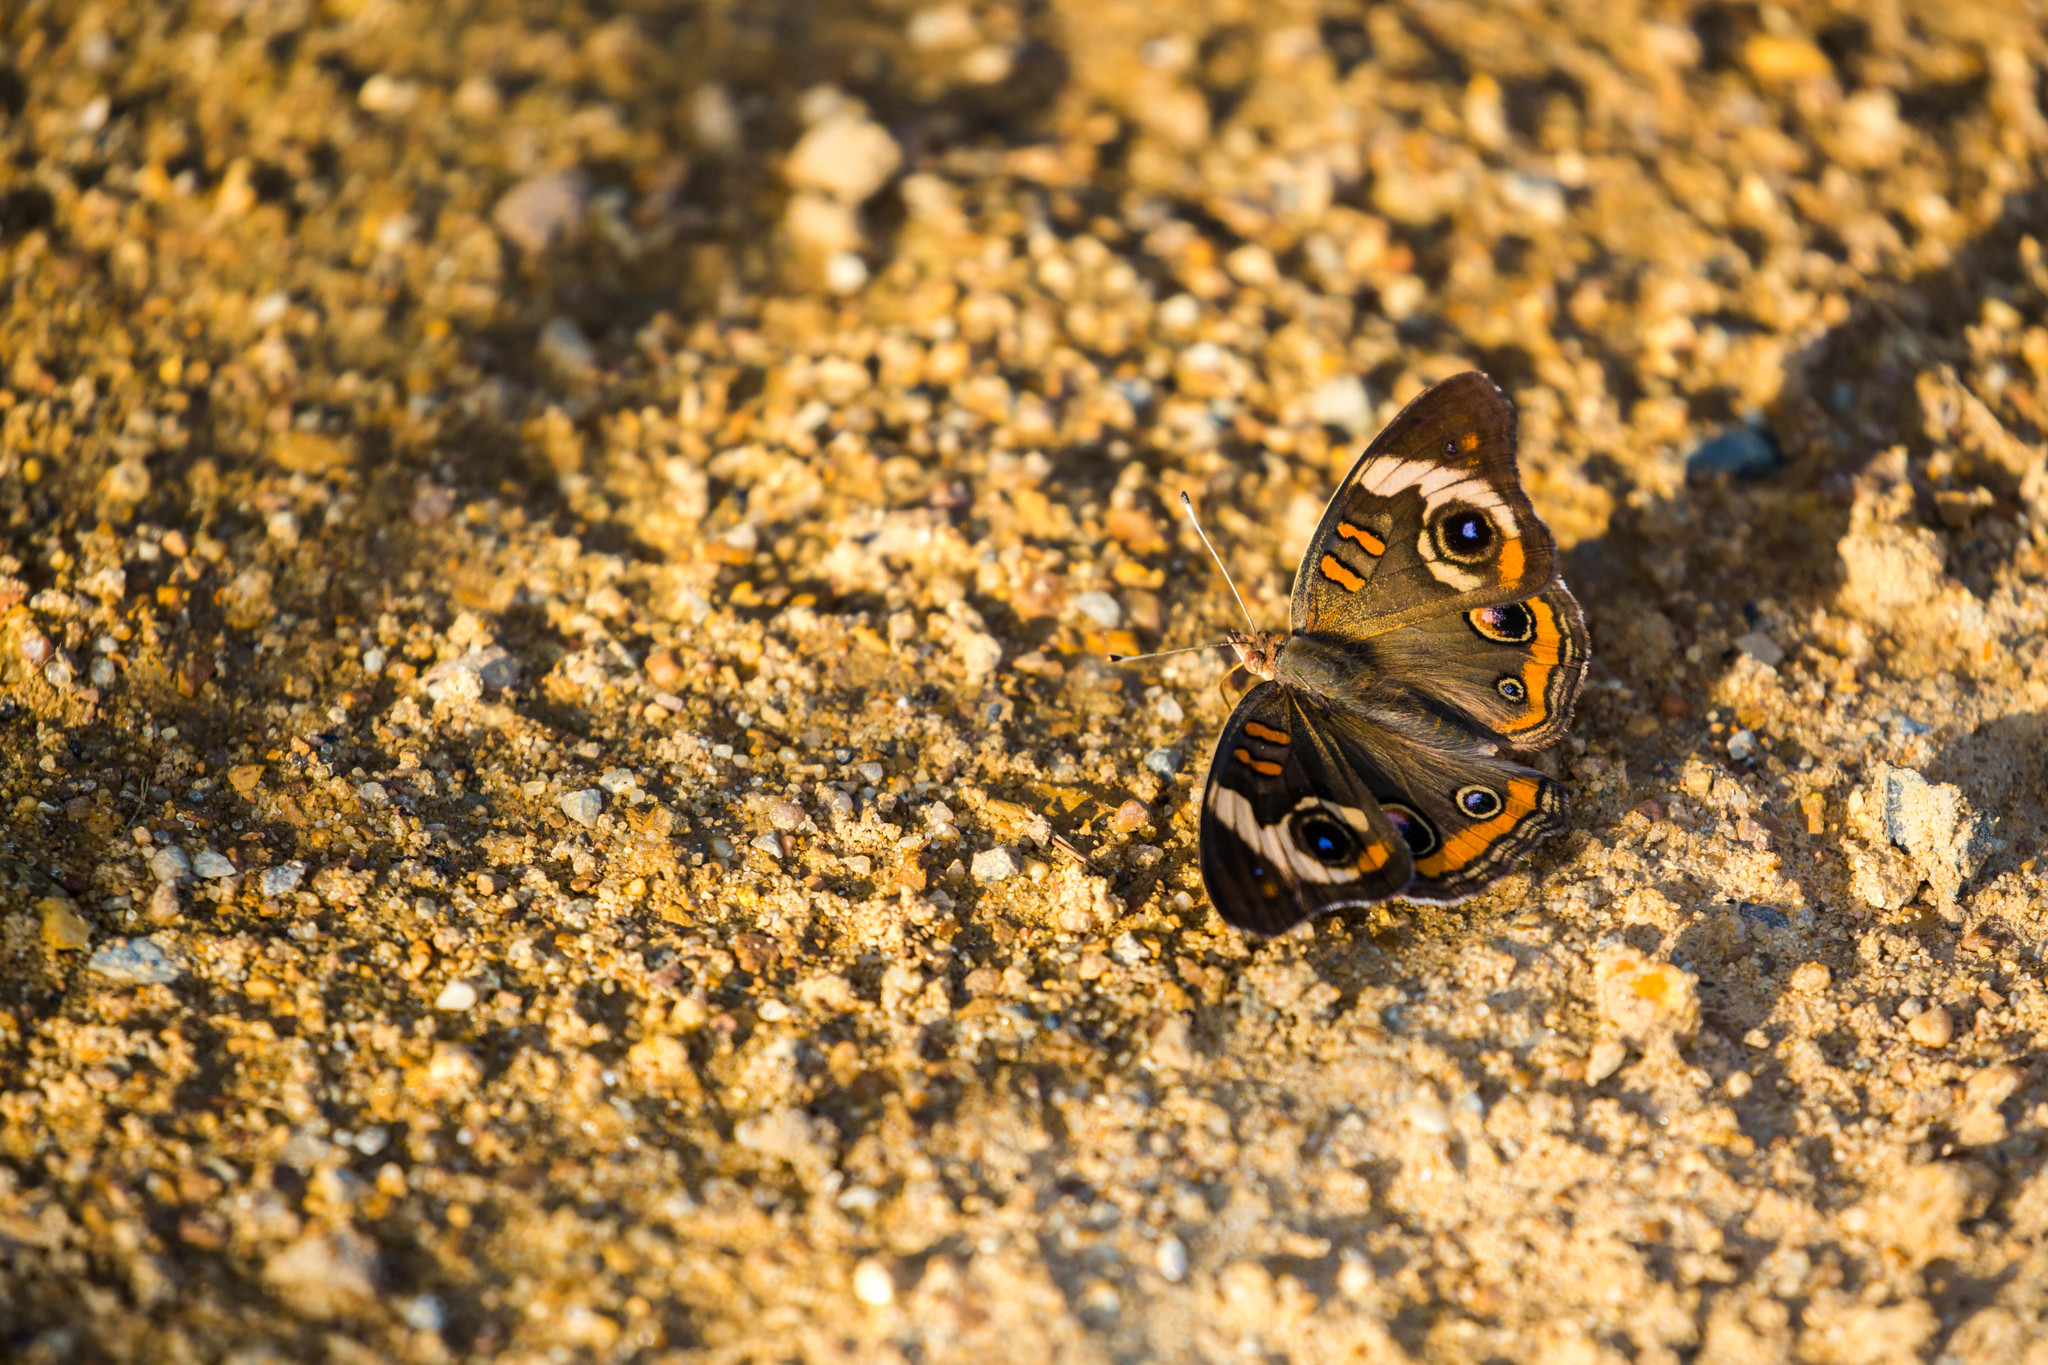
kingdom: Animalia
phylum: Arthropoda
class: Insecta
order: Lepidoptera
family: Nymphalidae
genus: Junonia
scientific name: Junonia coenia
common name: Common buckeye
